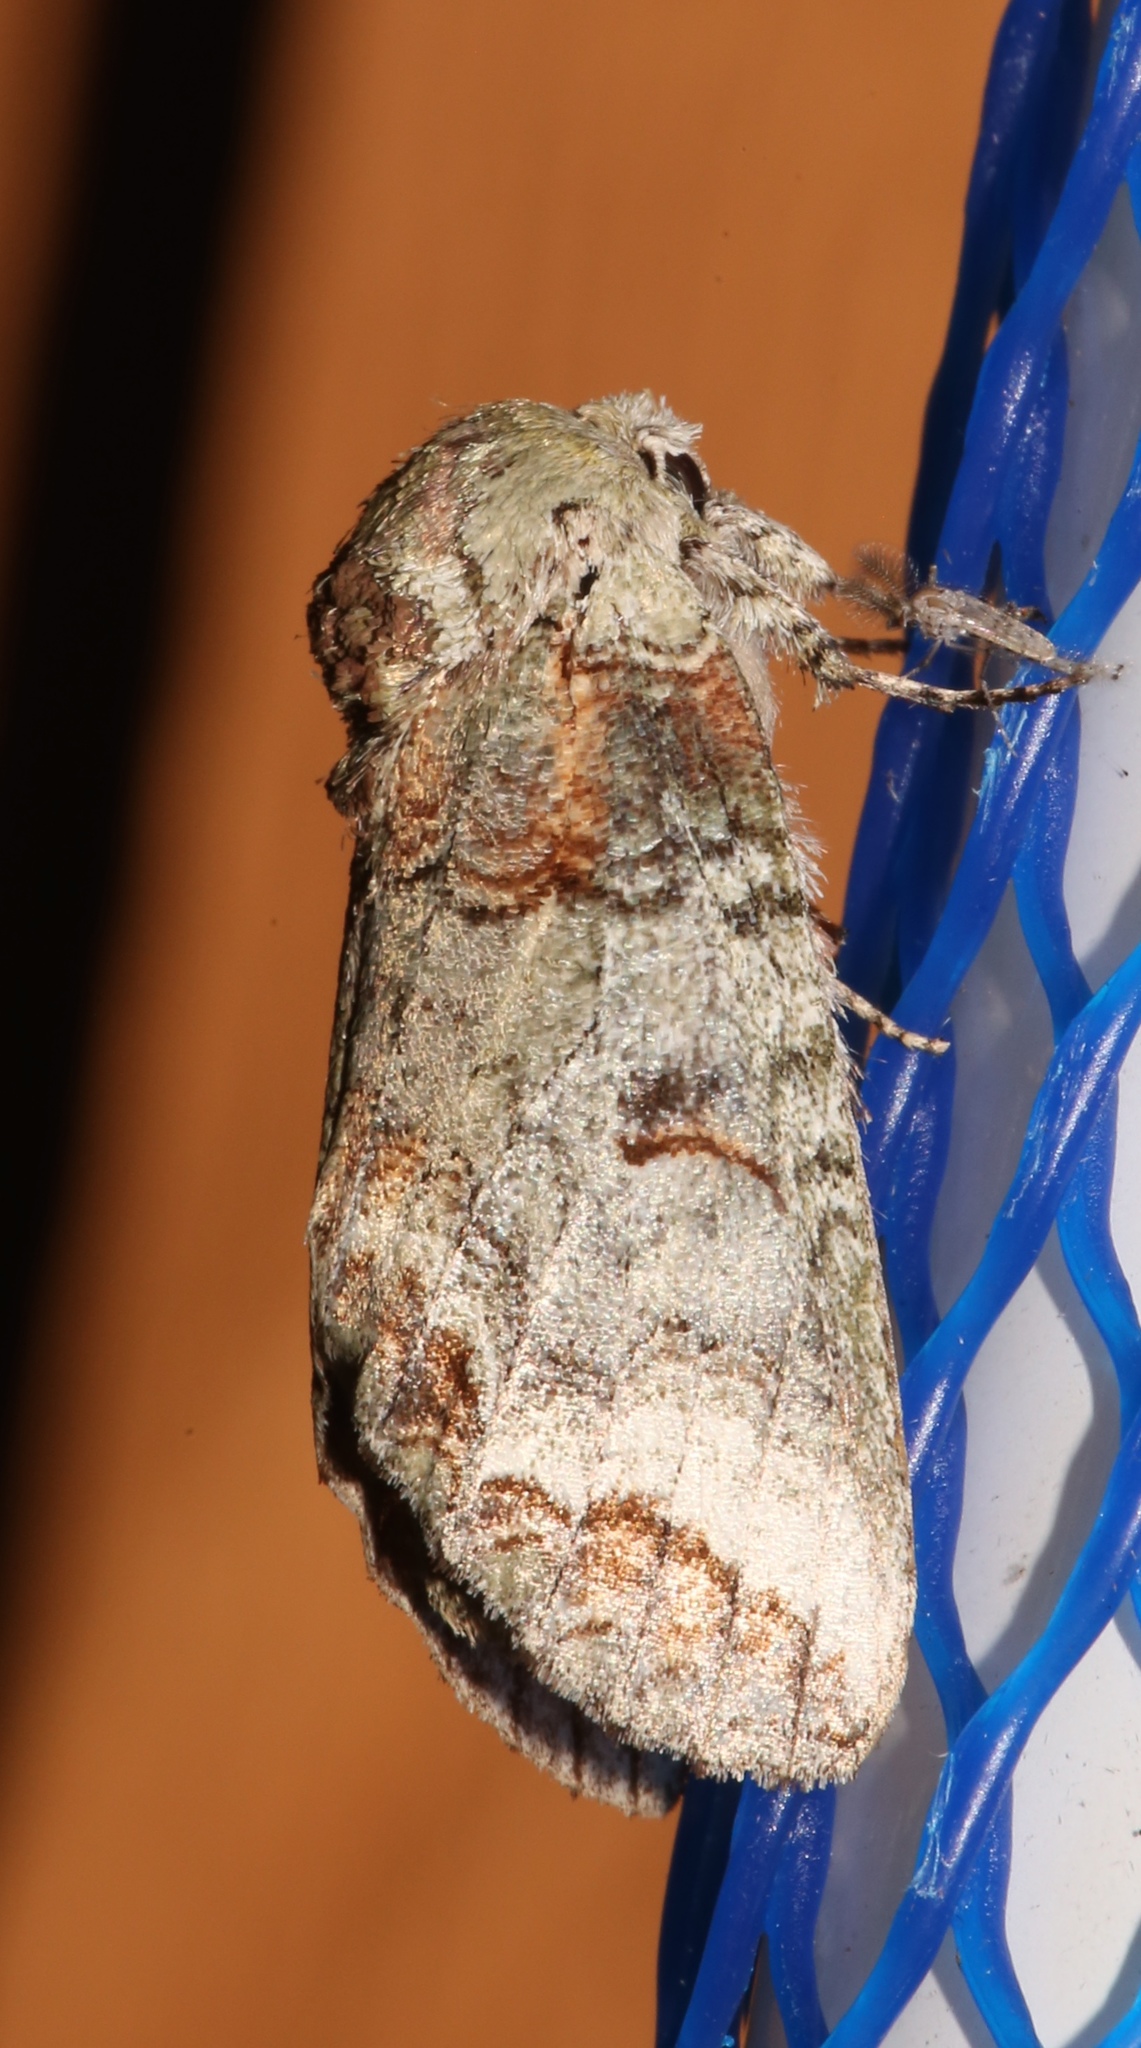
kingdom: Animalia
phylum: Arthropoda
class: Insecta
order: Lepidoptera
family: Notodontidae
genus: Heterocampa
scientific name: Heterocampa astarte
